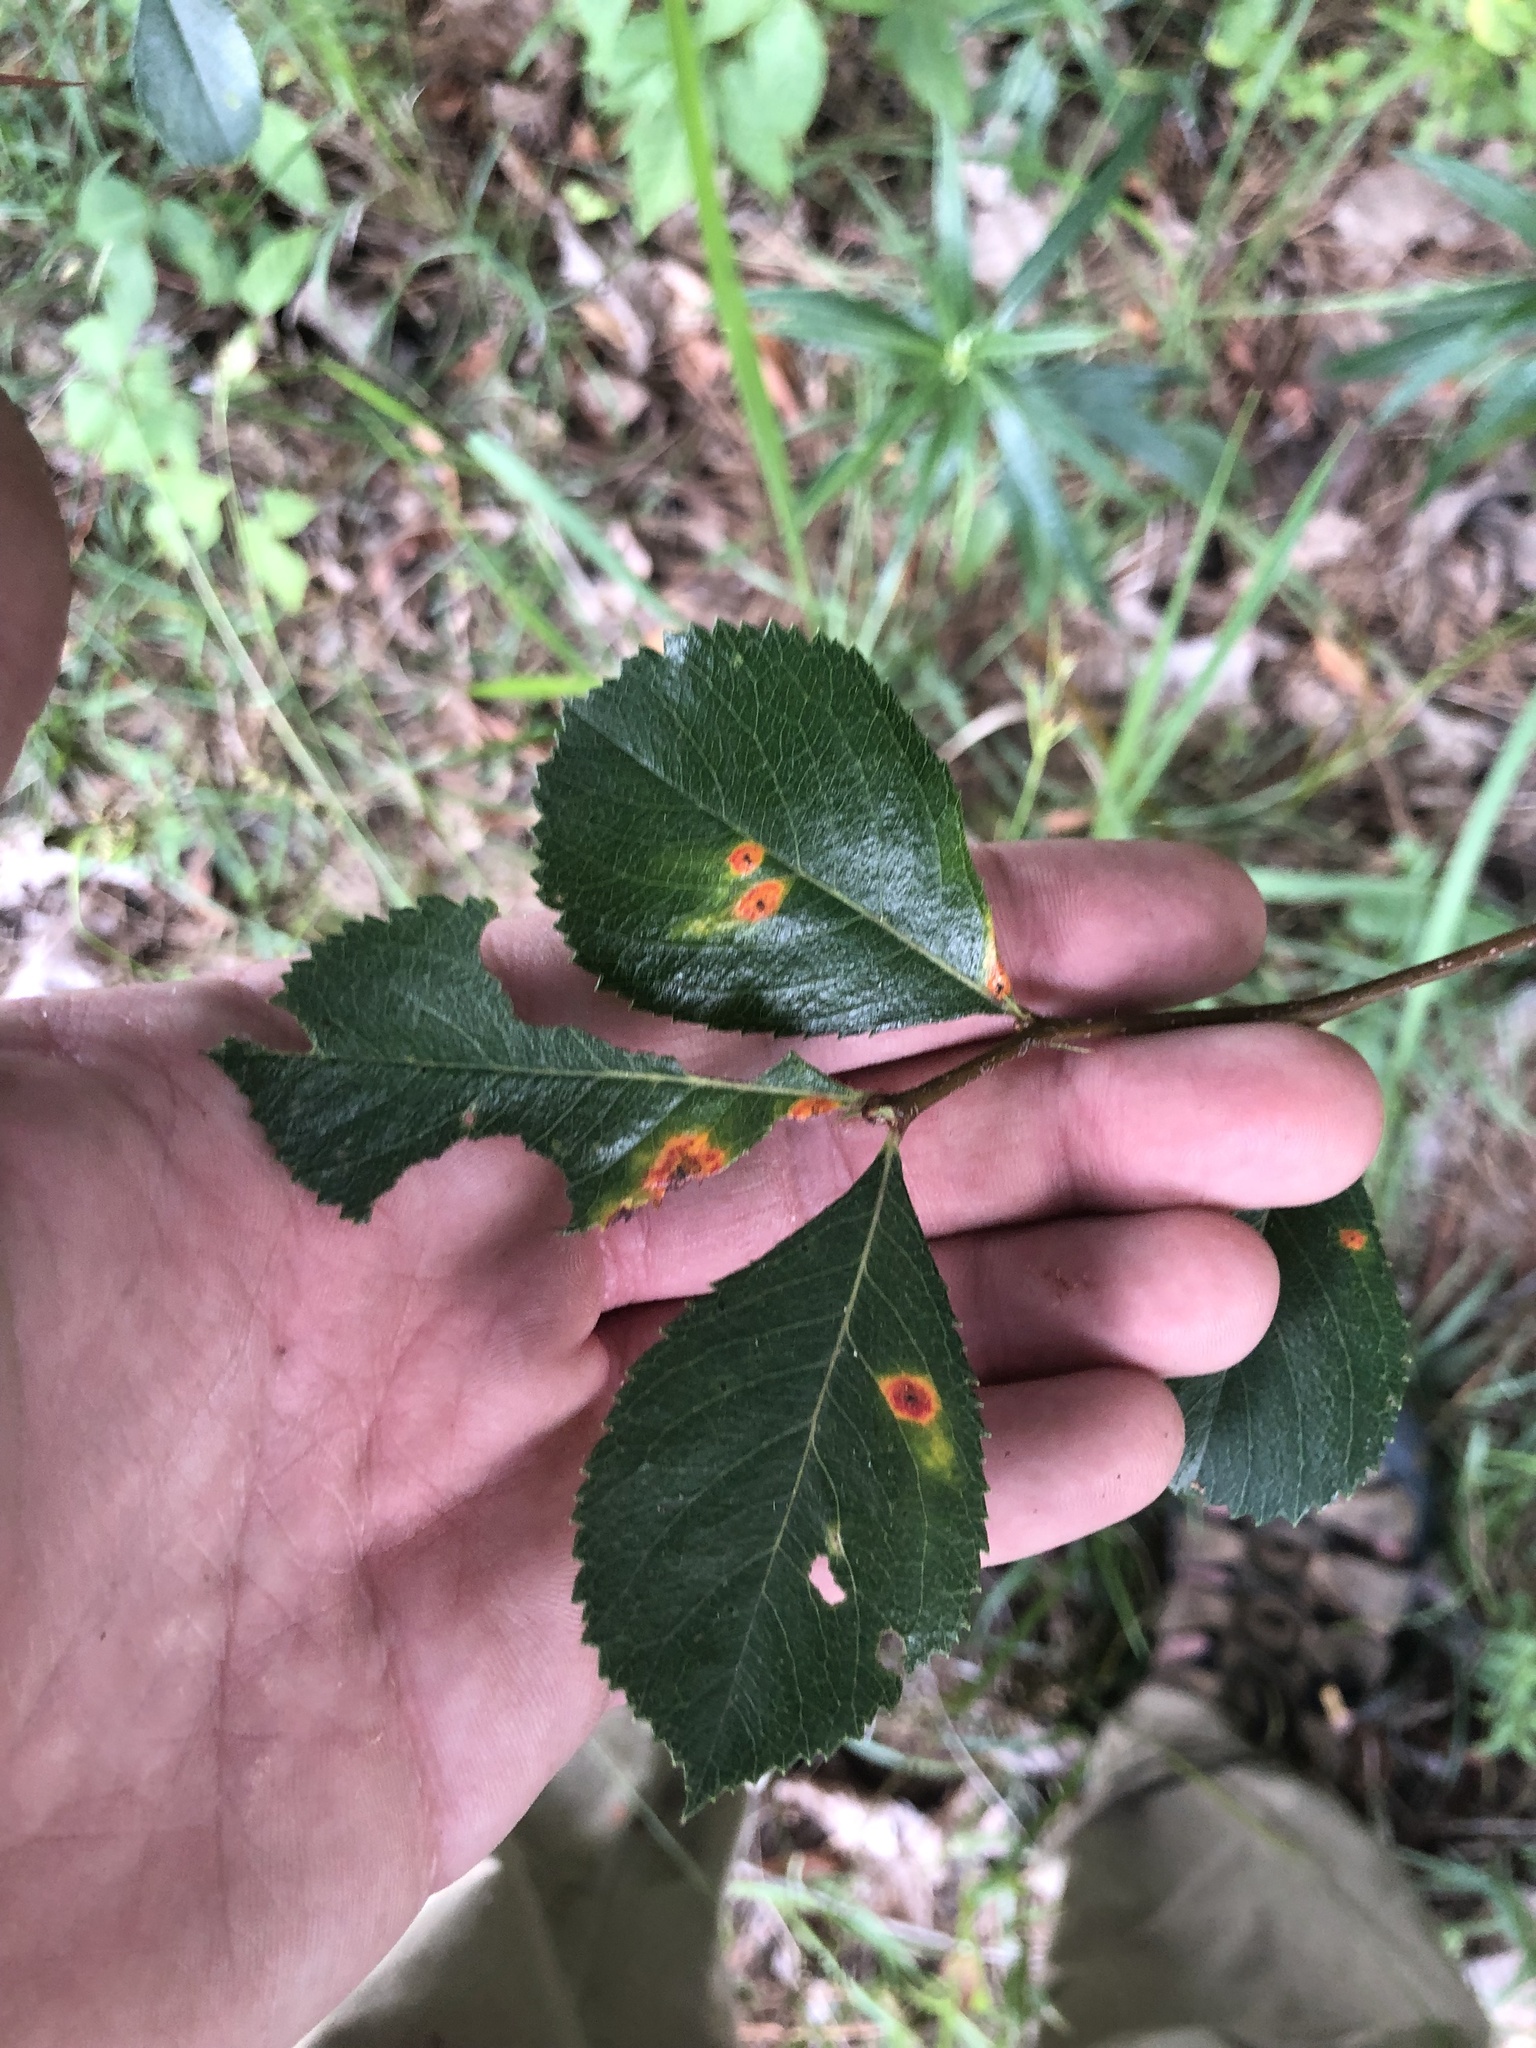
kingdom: Plantae
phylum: Tracheophyta
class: Magnoliopsida
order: Rosales
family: Rosaceae
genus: Crataegus
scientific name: Crataegus berberifolia
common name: Barberry hawthorn
